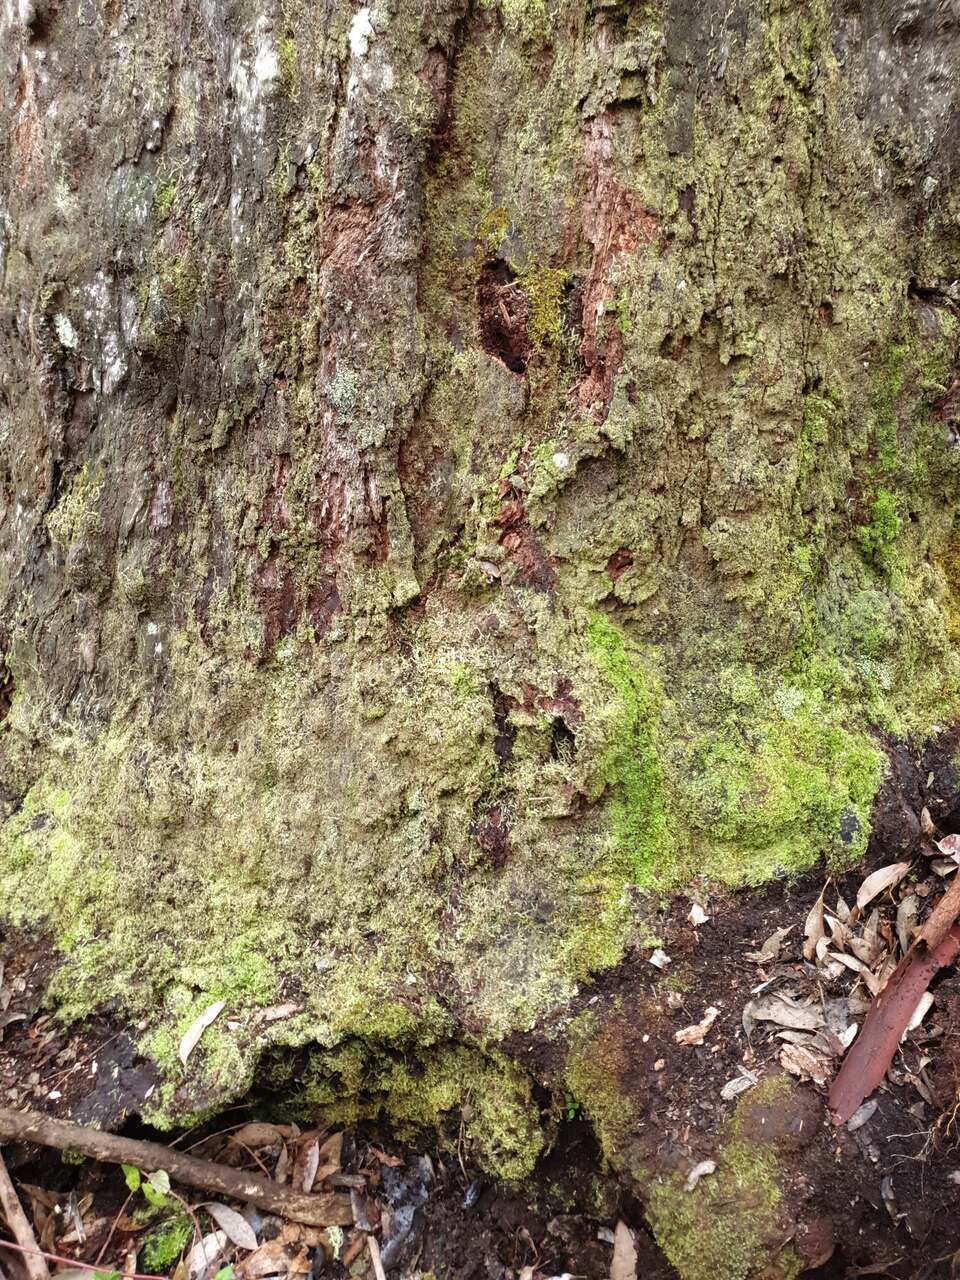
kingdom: Animalia
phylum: Arthropoda
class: Insecta
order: Hymenoptera
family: Formicidae
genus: Myrmecia
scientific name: Myrmecia regularis
